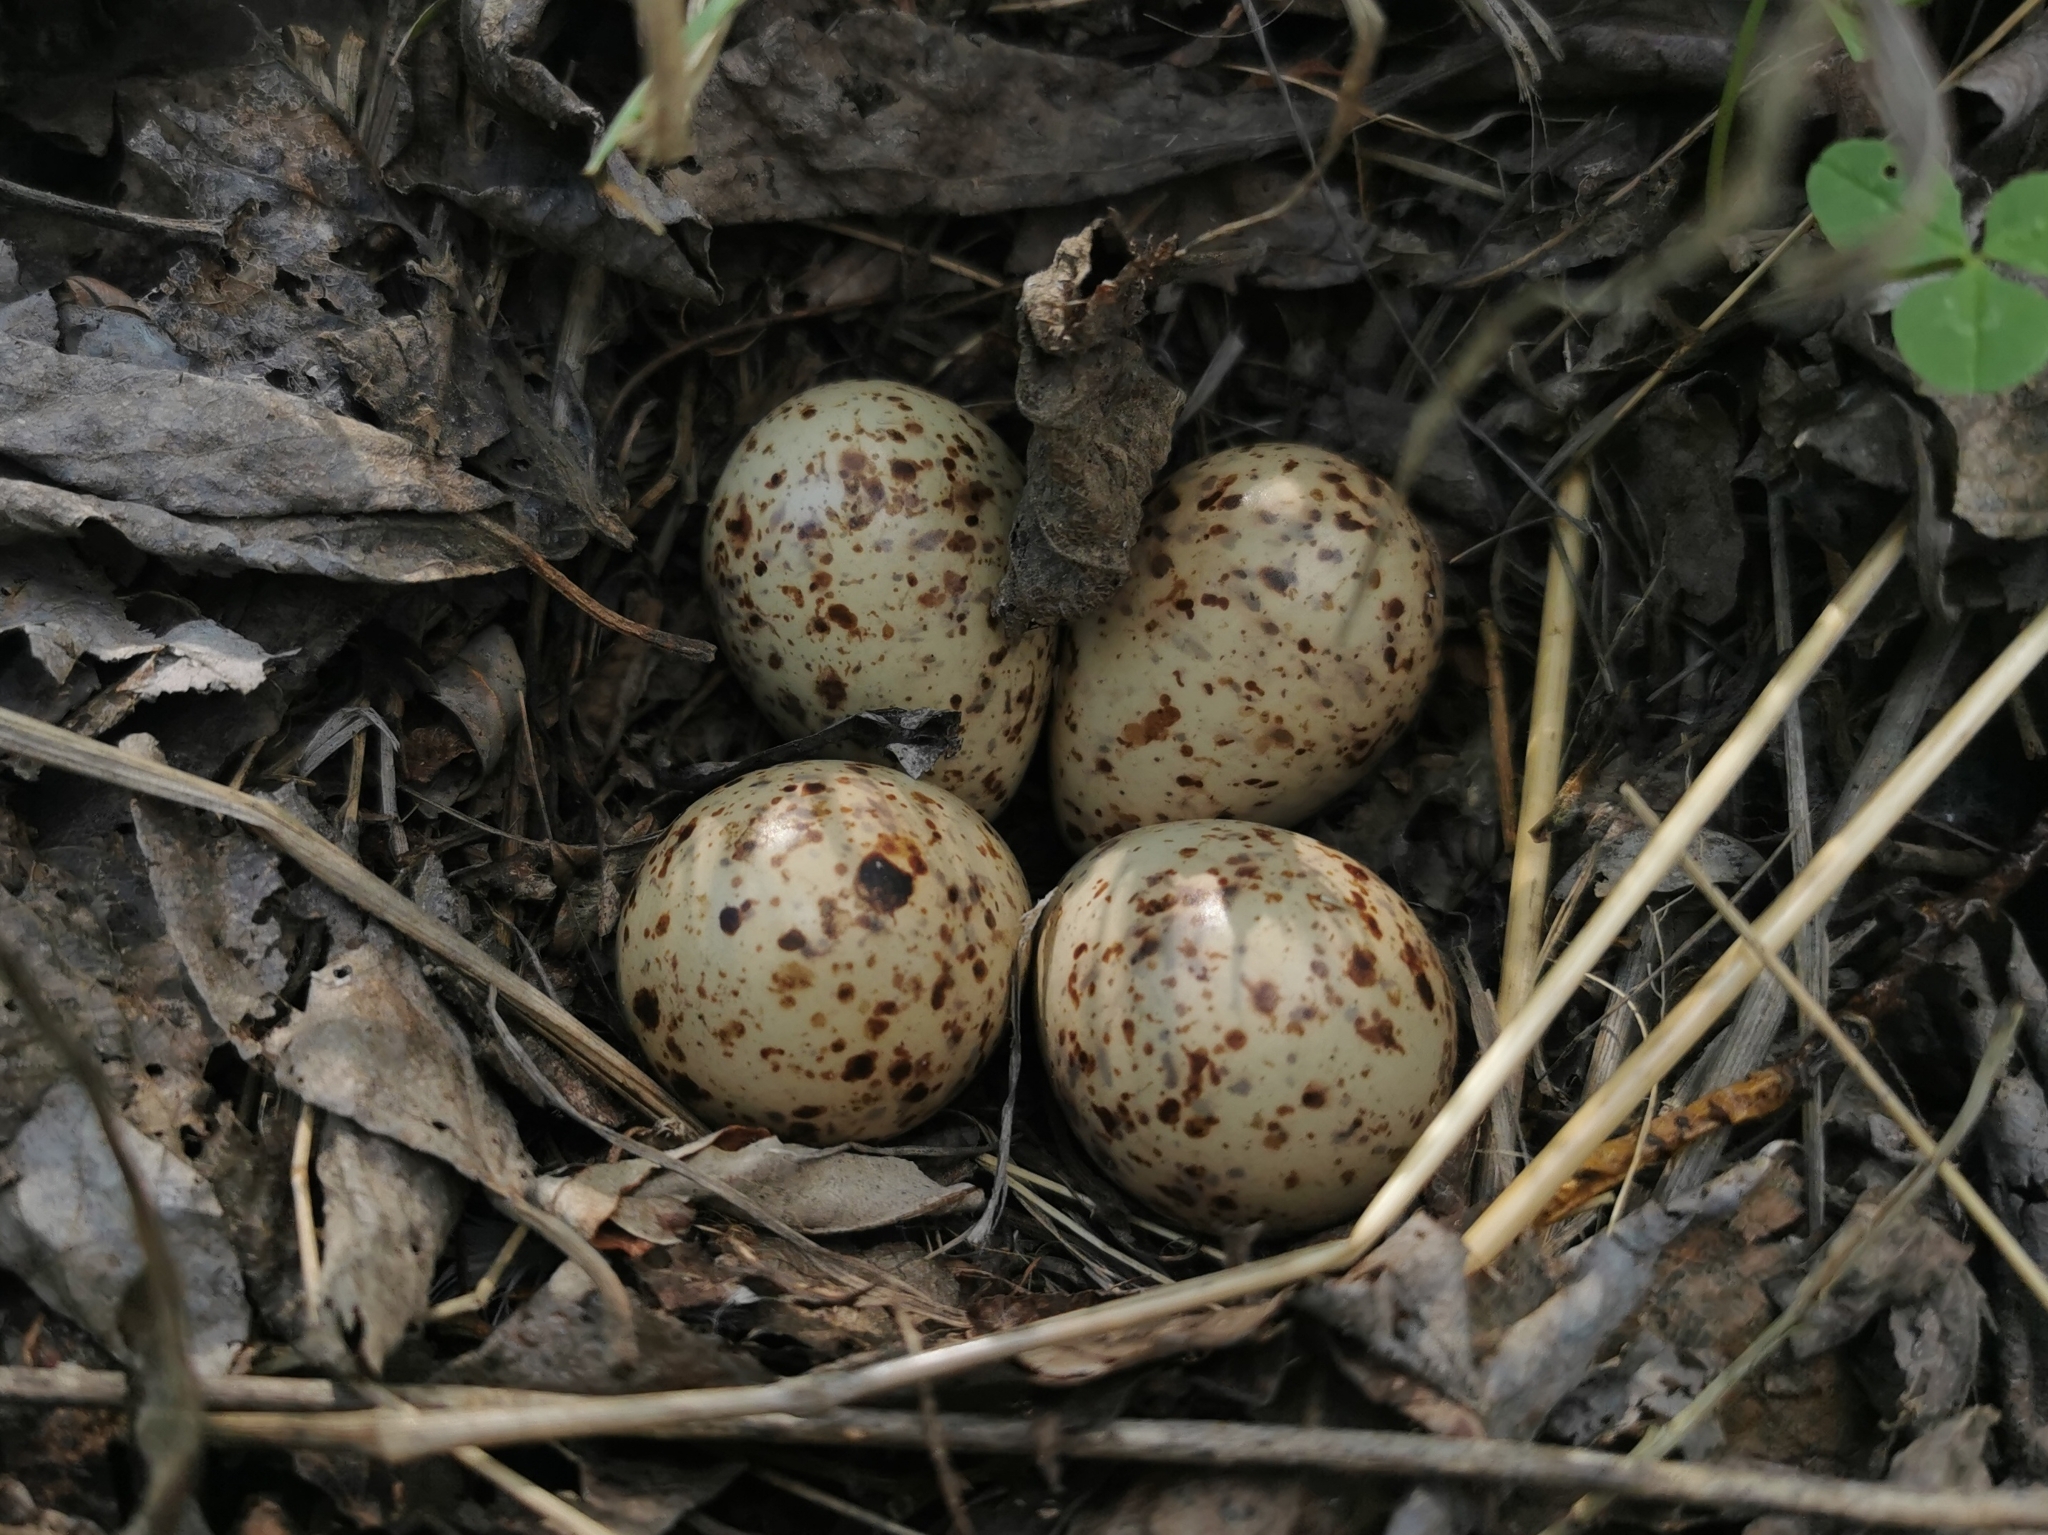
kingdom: Animalia
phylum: Chordata
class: Aves
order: Charadriiformes
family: Scolopacidae
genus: Actitis
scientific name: Actitis hypoleucos
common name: Common sandpiper
